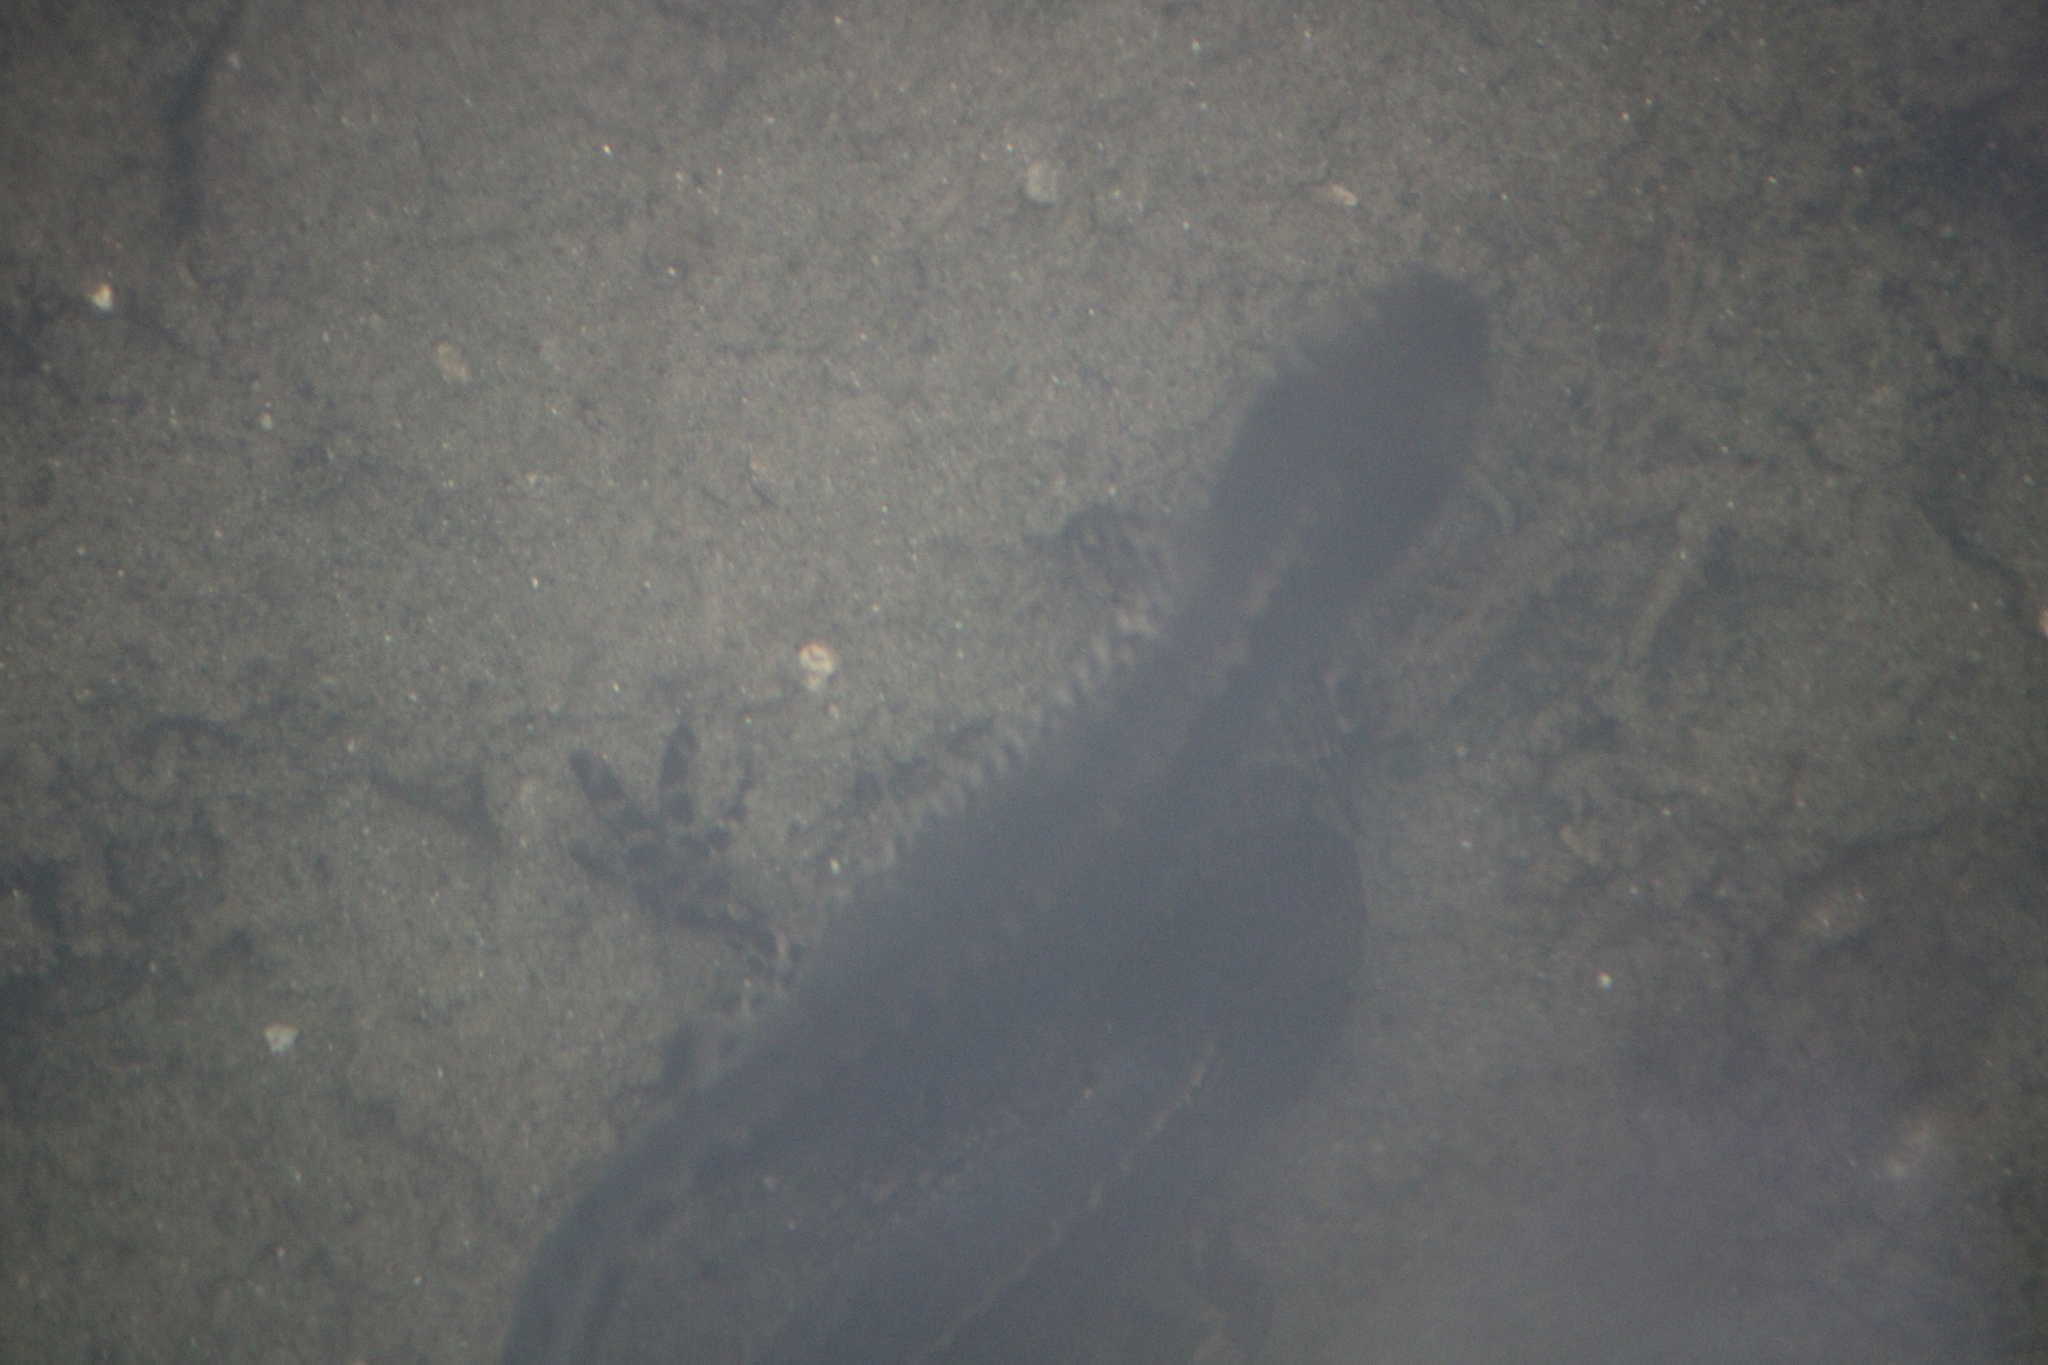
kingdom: Animalia
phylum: Chordata
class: Amphibia
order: Caudata
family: Salamandridae
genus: Ichthyosaura
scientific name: Ichthyosaura alpestris
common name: Alpine newt
